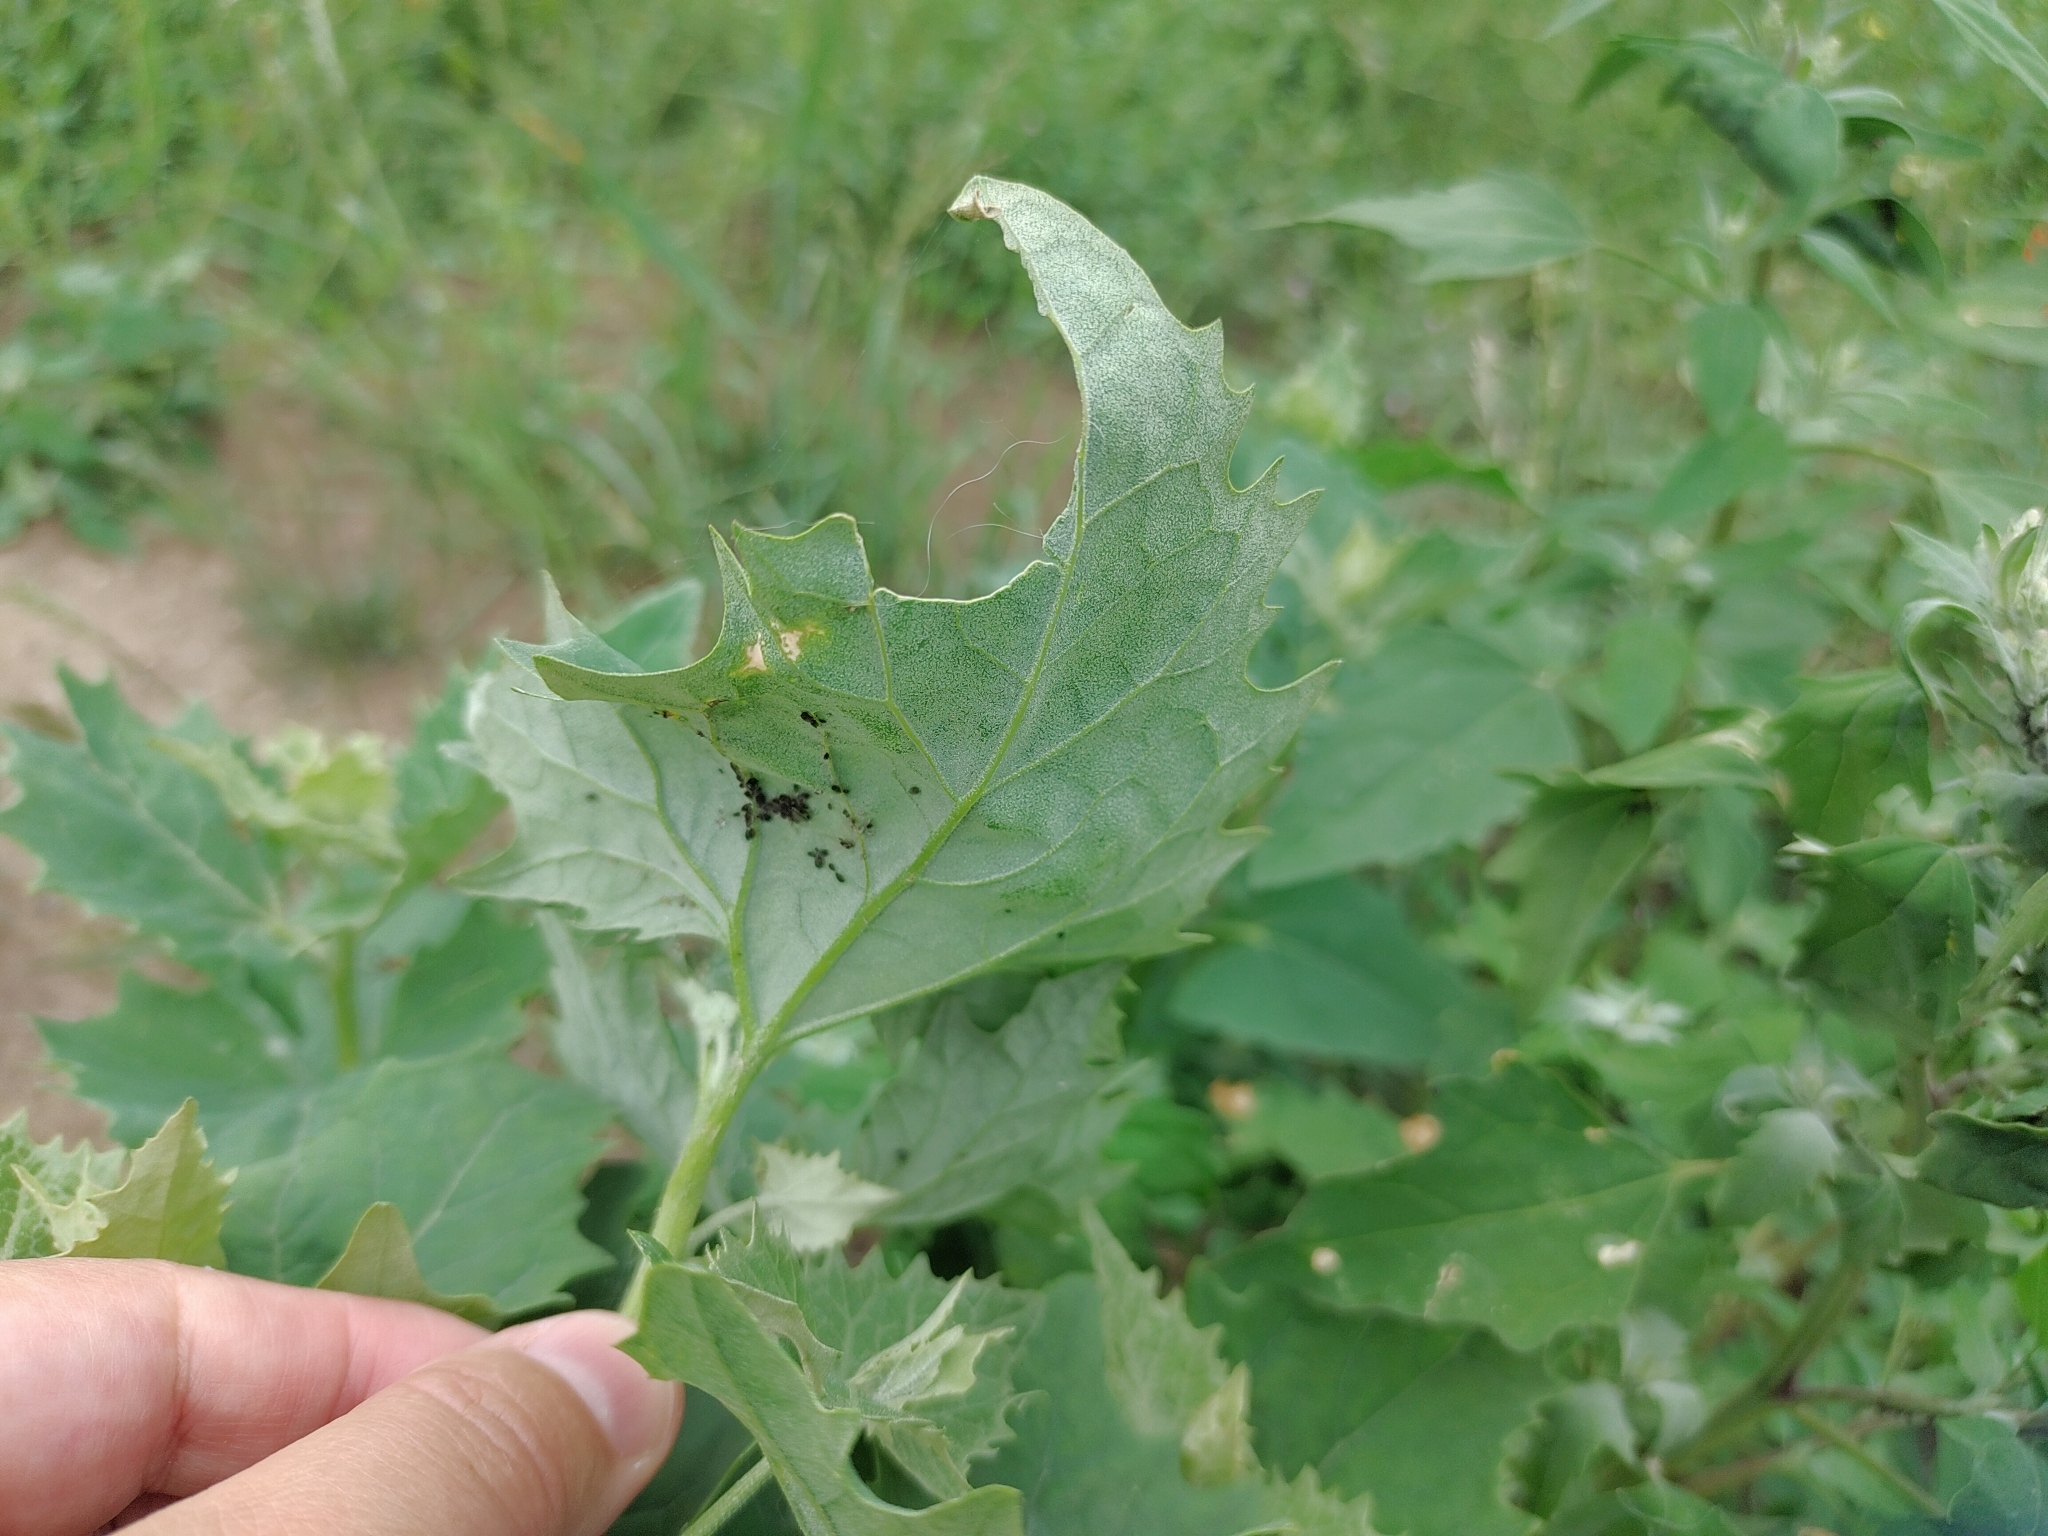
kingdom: Plantae
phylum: Tracheophyta
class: Magnoliopsida
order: Caryophyllales
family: Amaranthaceae
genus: Atriplex
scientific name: Atriplex sagittata
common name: Purple orache
